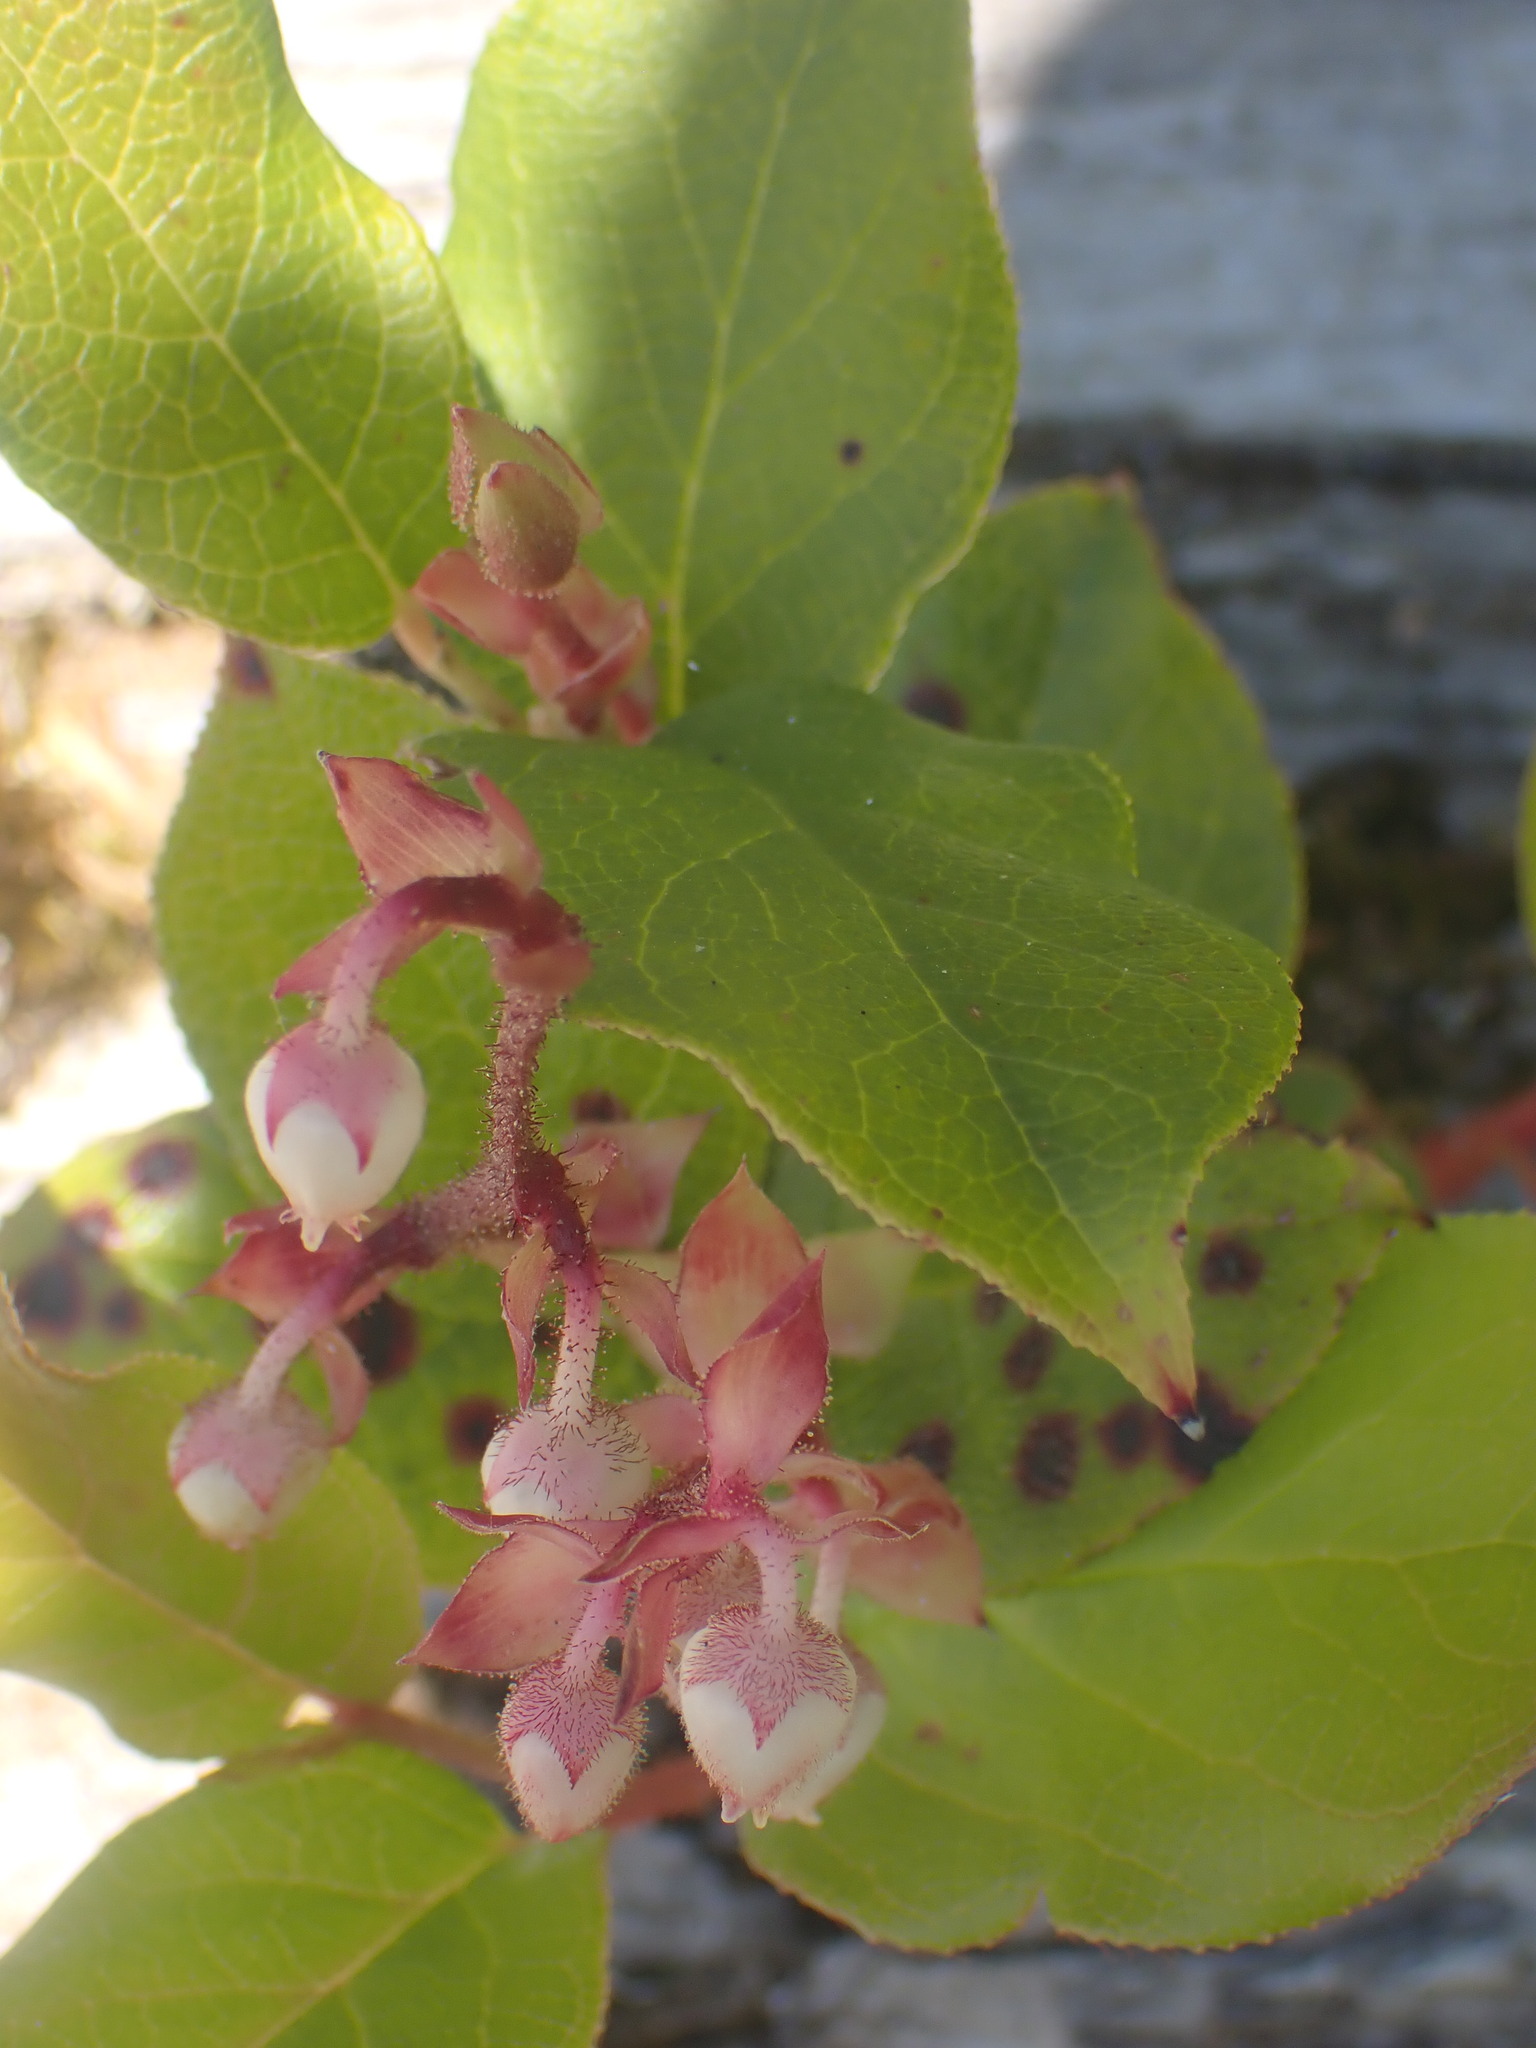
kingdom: Plantae
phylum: Tracheophyta
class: Magnoliopsida
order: Ericales
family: Ericaceae
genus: Gaultheria
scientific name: Gaultheria shallon
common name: Shallon
